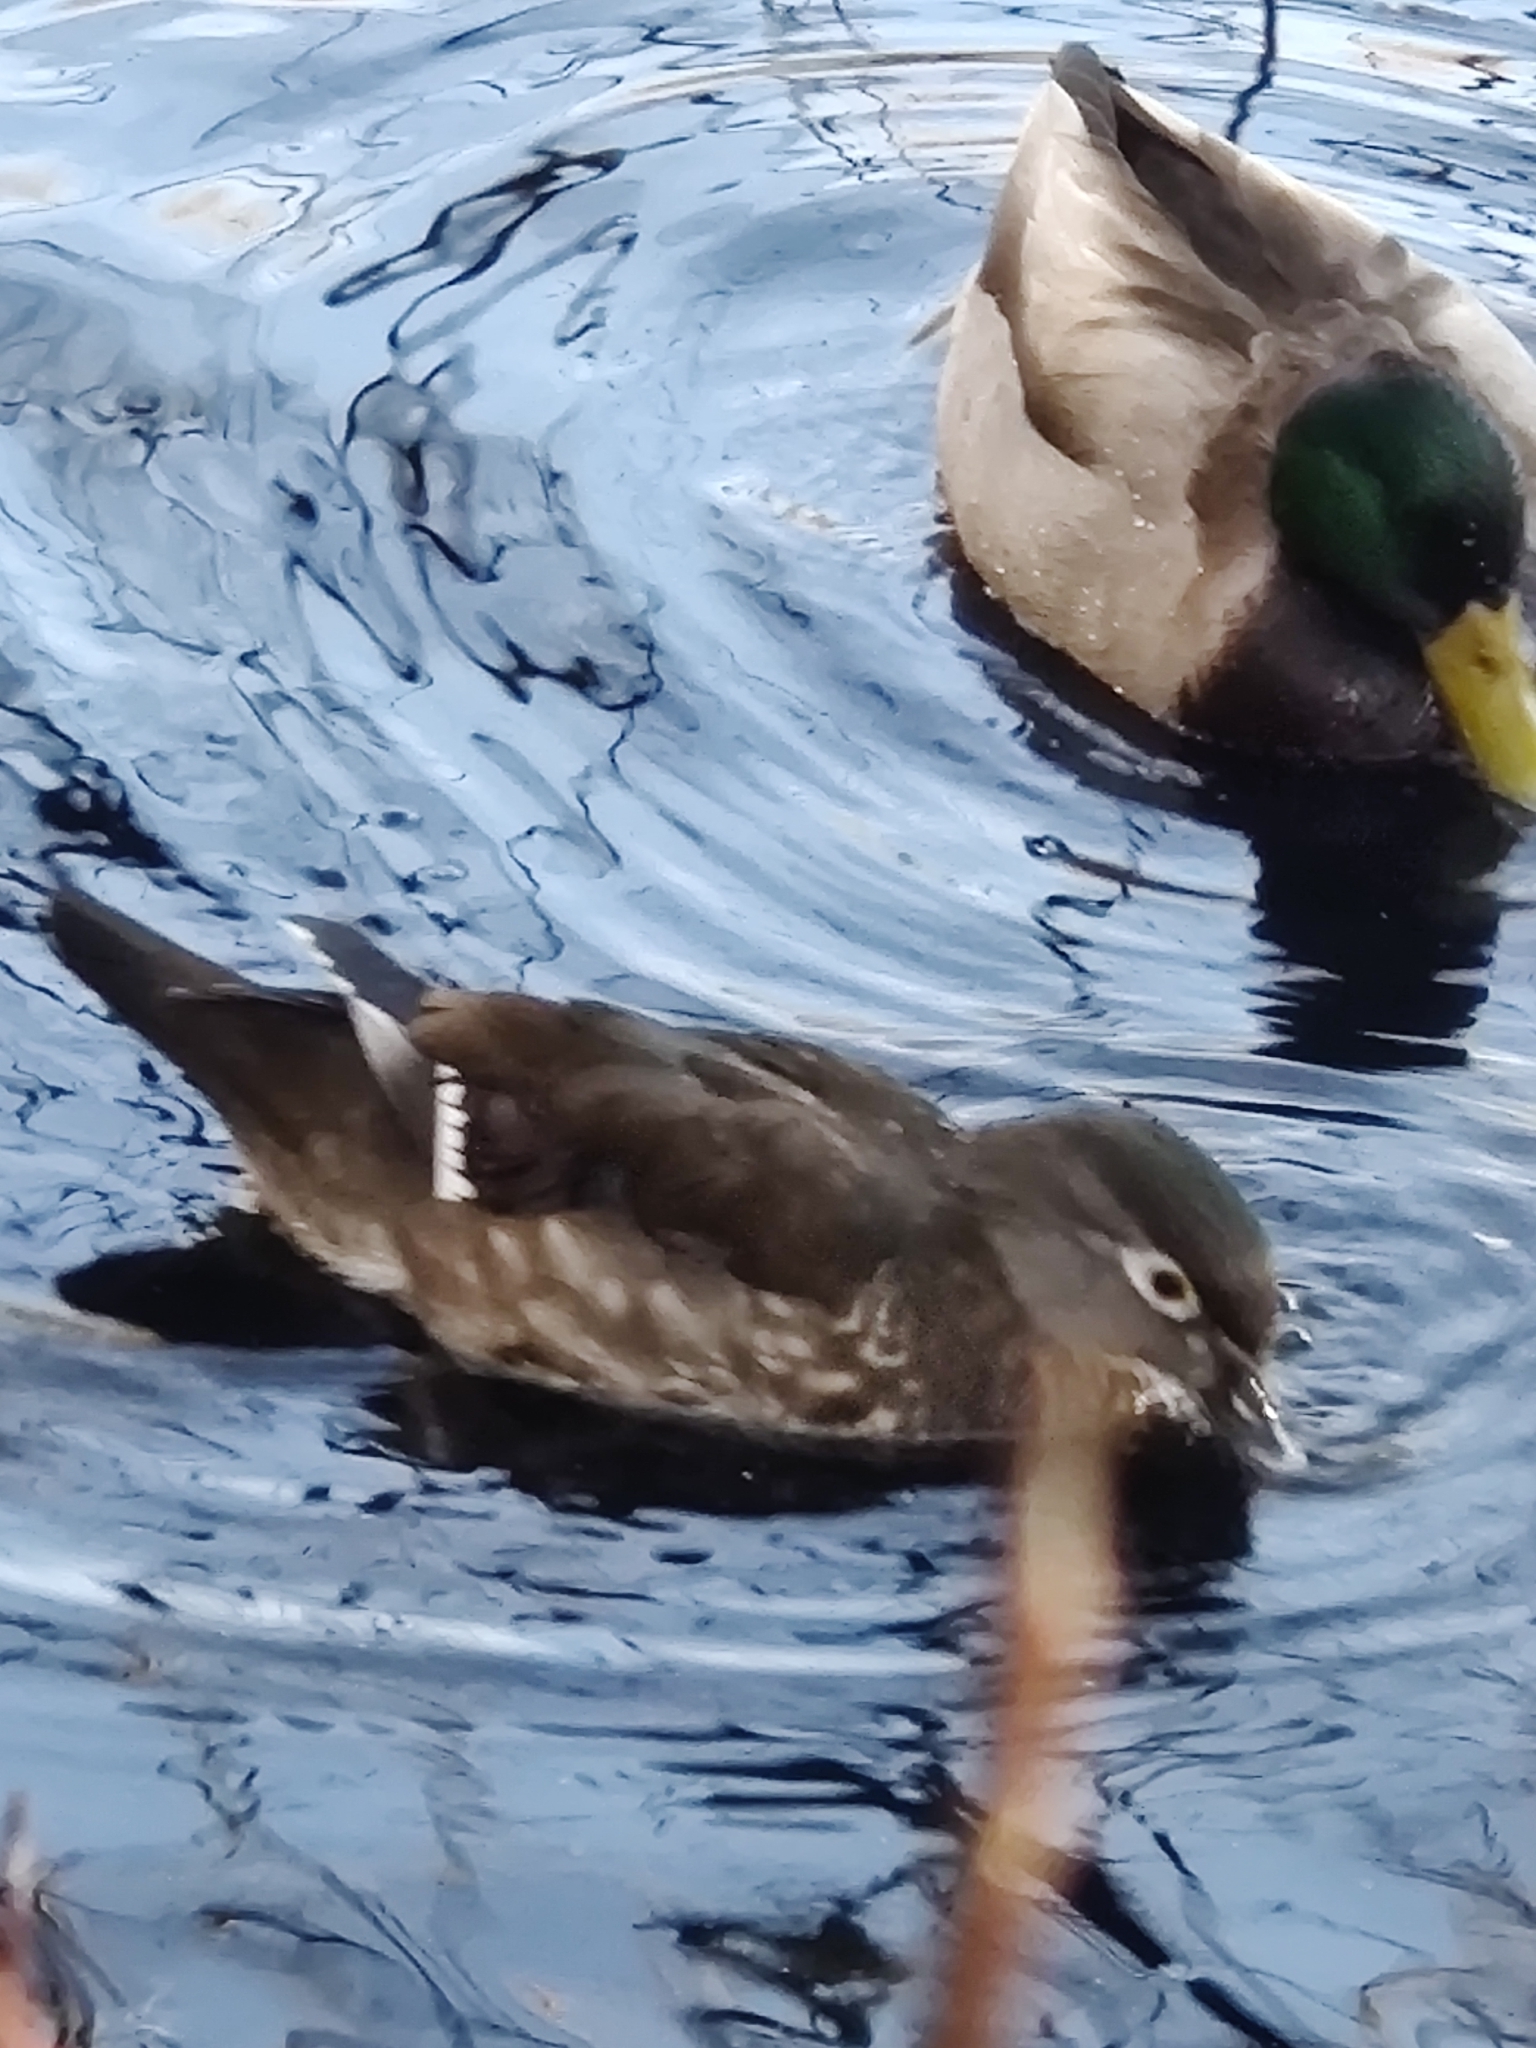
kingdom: Animalia
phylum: Chordata
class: Aves
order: Anseriformes
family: Anatidae
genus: Aix
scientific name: Aix sponsa
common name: Wood duck
